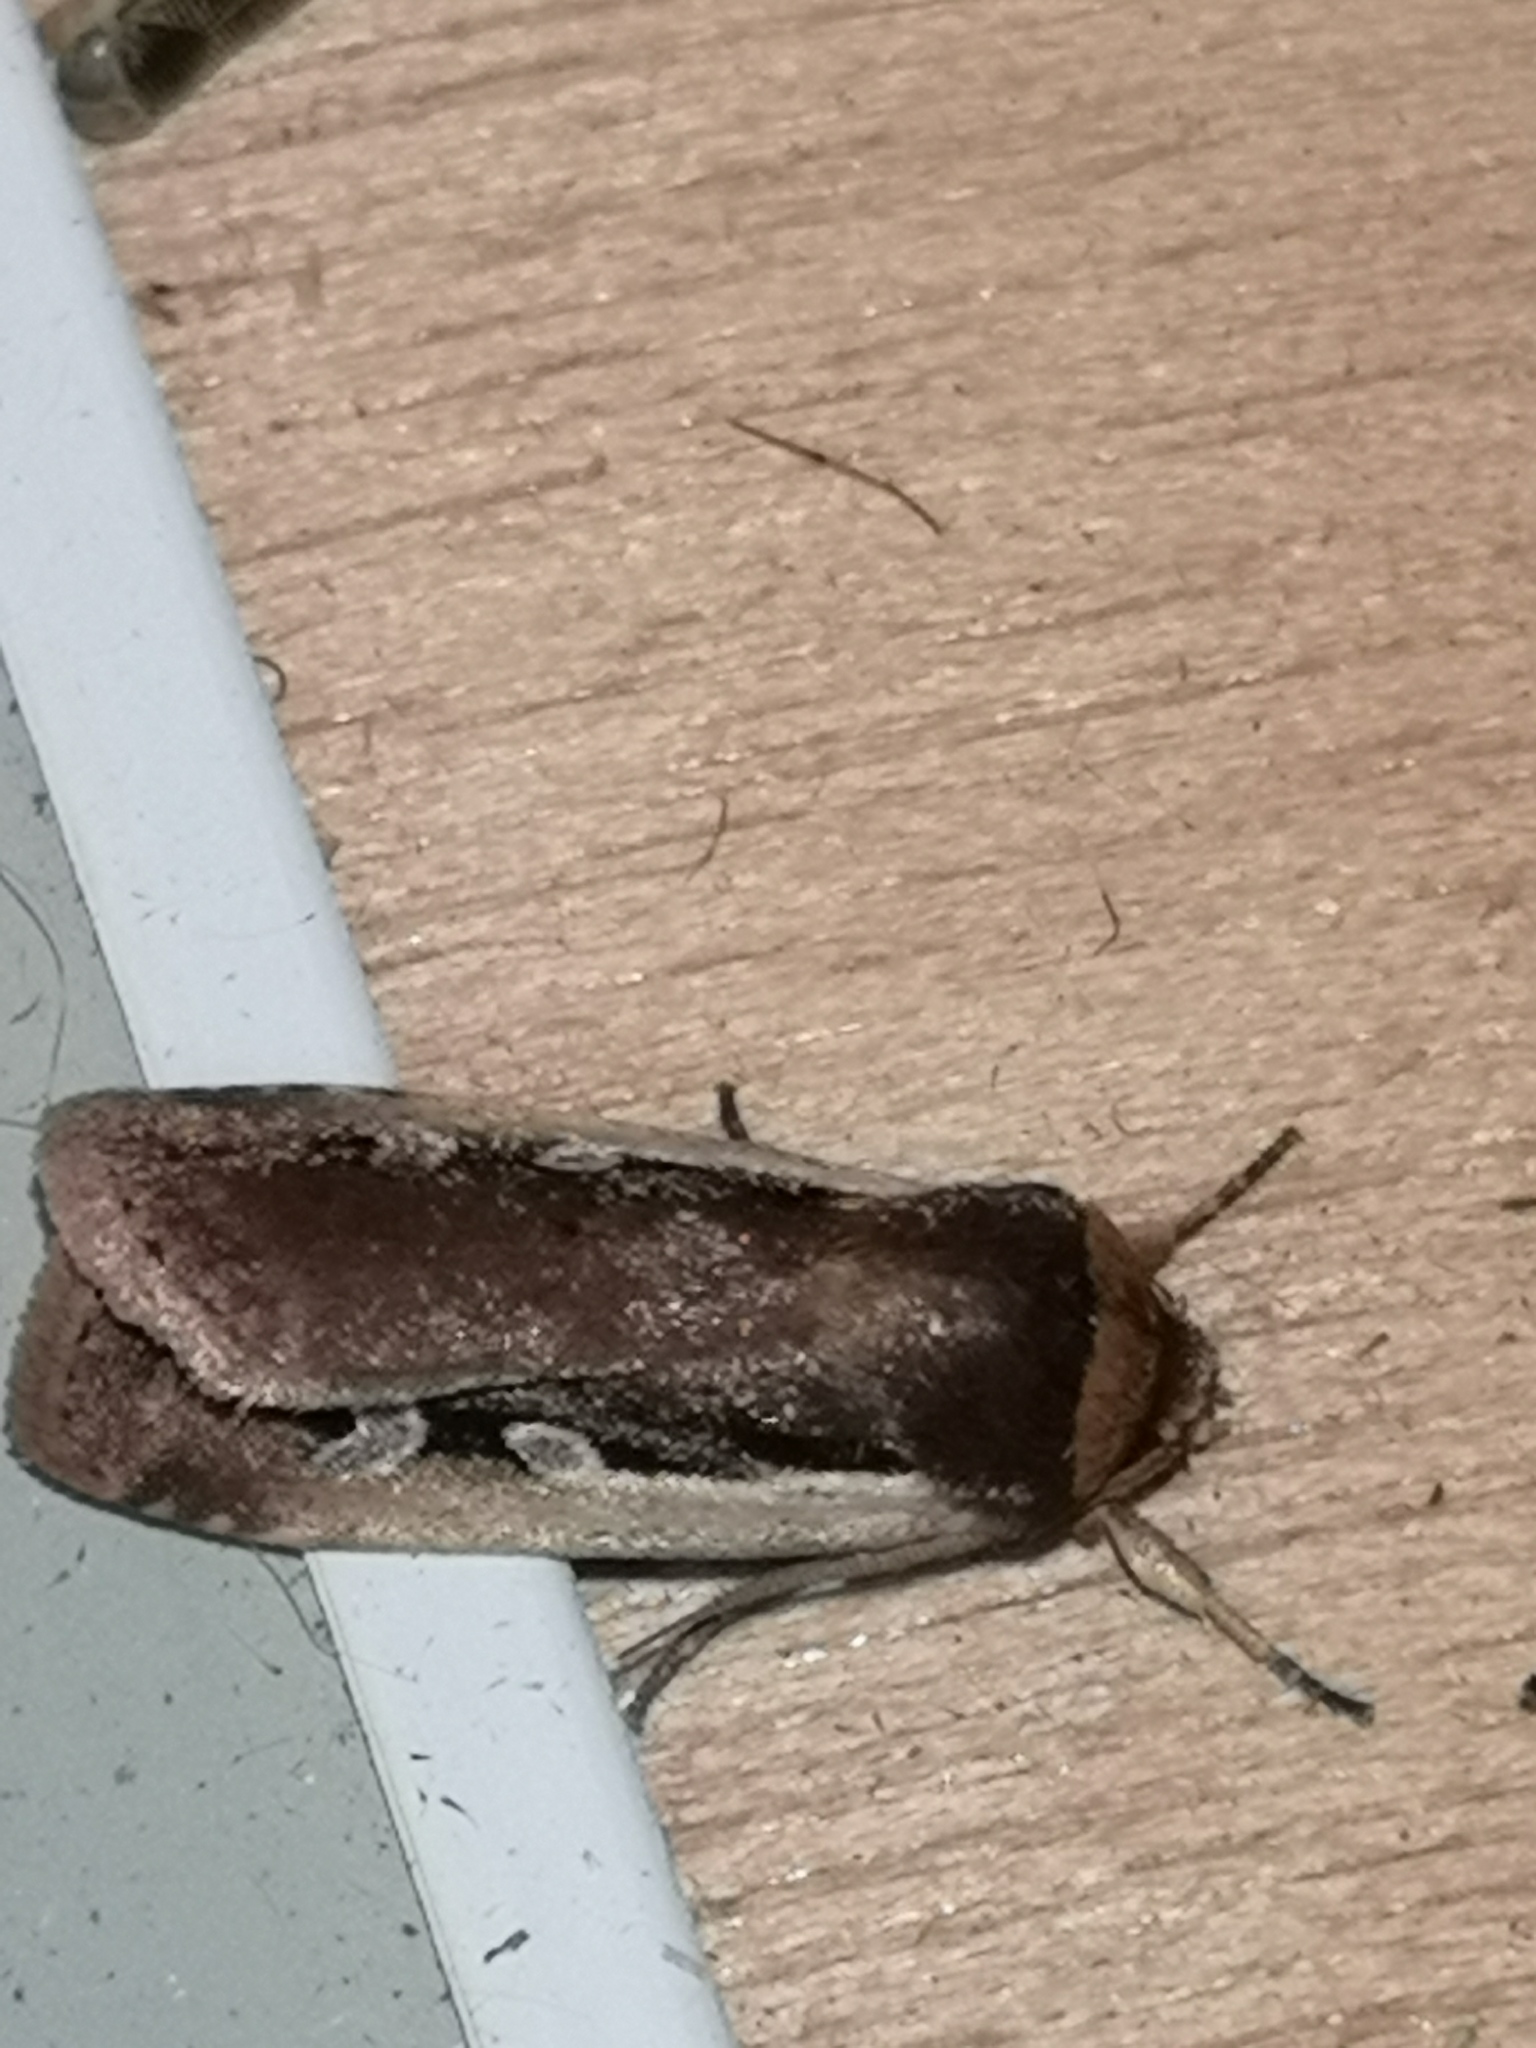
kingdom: Animalia
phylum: Arthropoda
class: Insecta
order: Lepidoptera
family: Noctuidae
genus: Ochropleura
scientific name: Ochropleura plecta
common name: Flame shoulder
